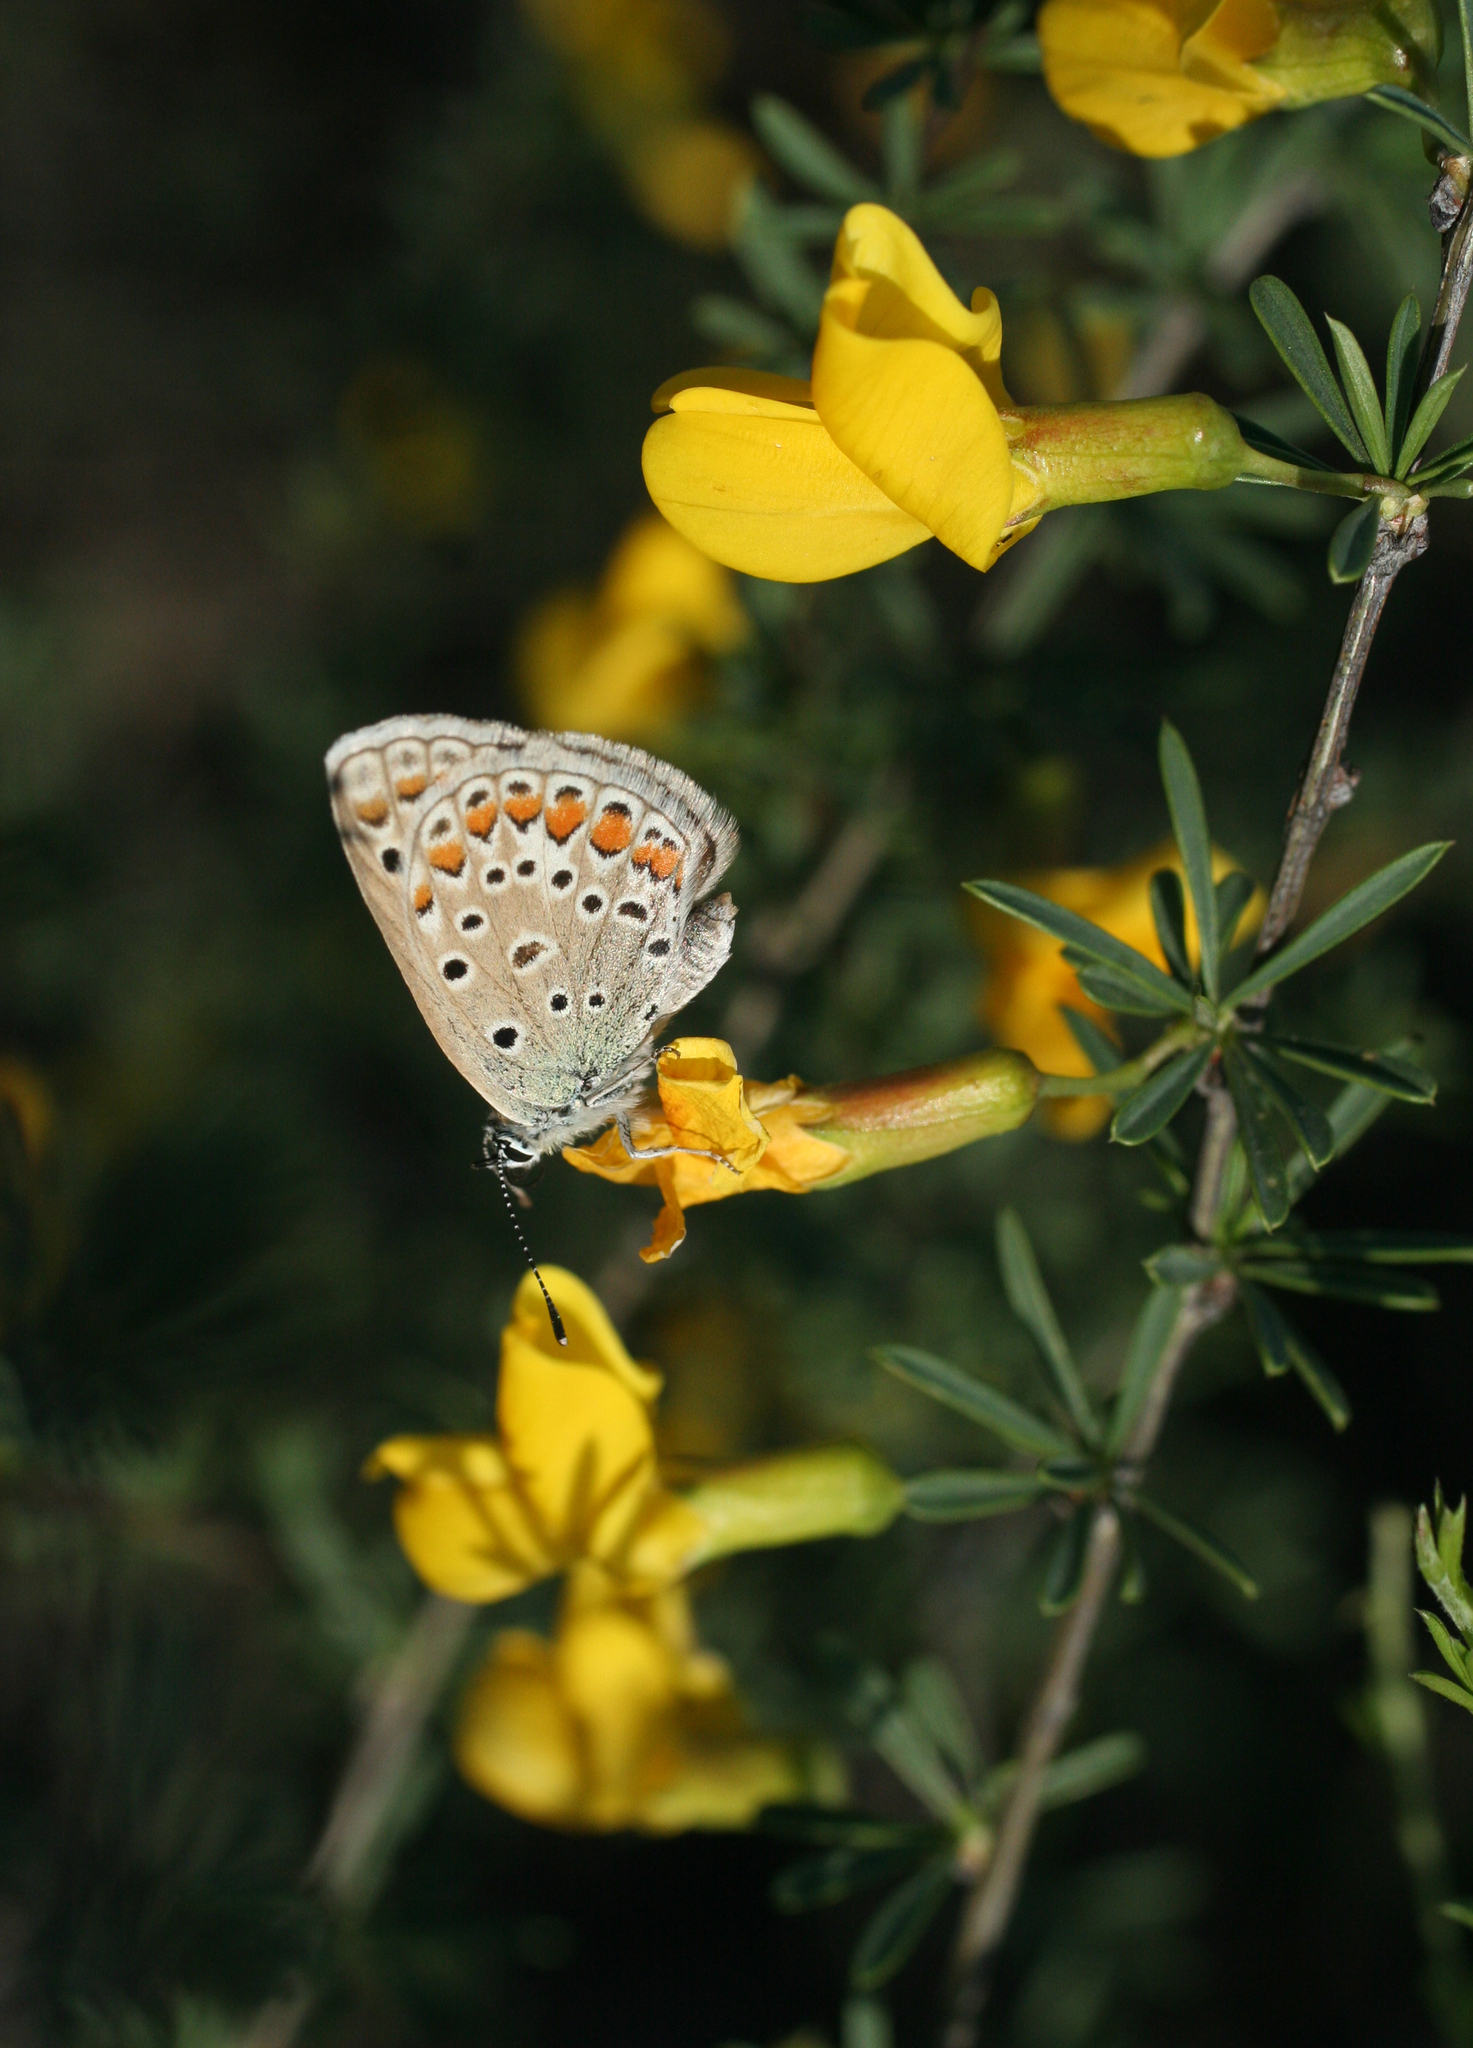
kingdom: Animalia
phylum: Arthropoda
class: Insecta
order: Lepidoptera
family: Lycaenidae
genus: Polyommatus
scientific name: Polyommatus icarus
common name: Common blue
